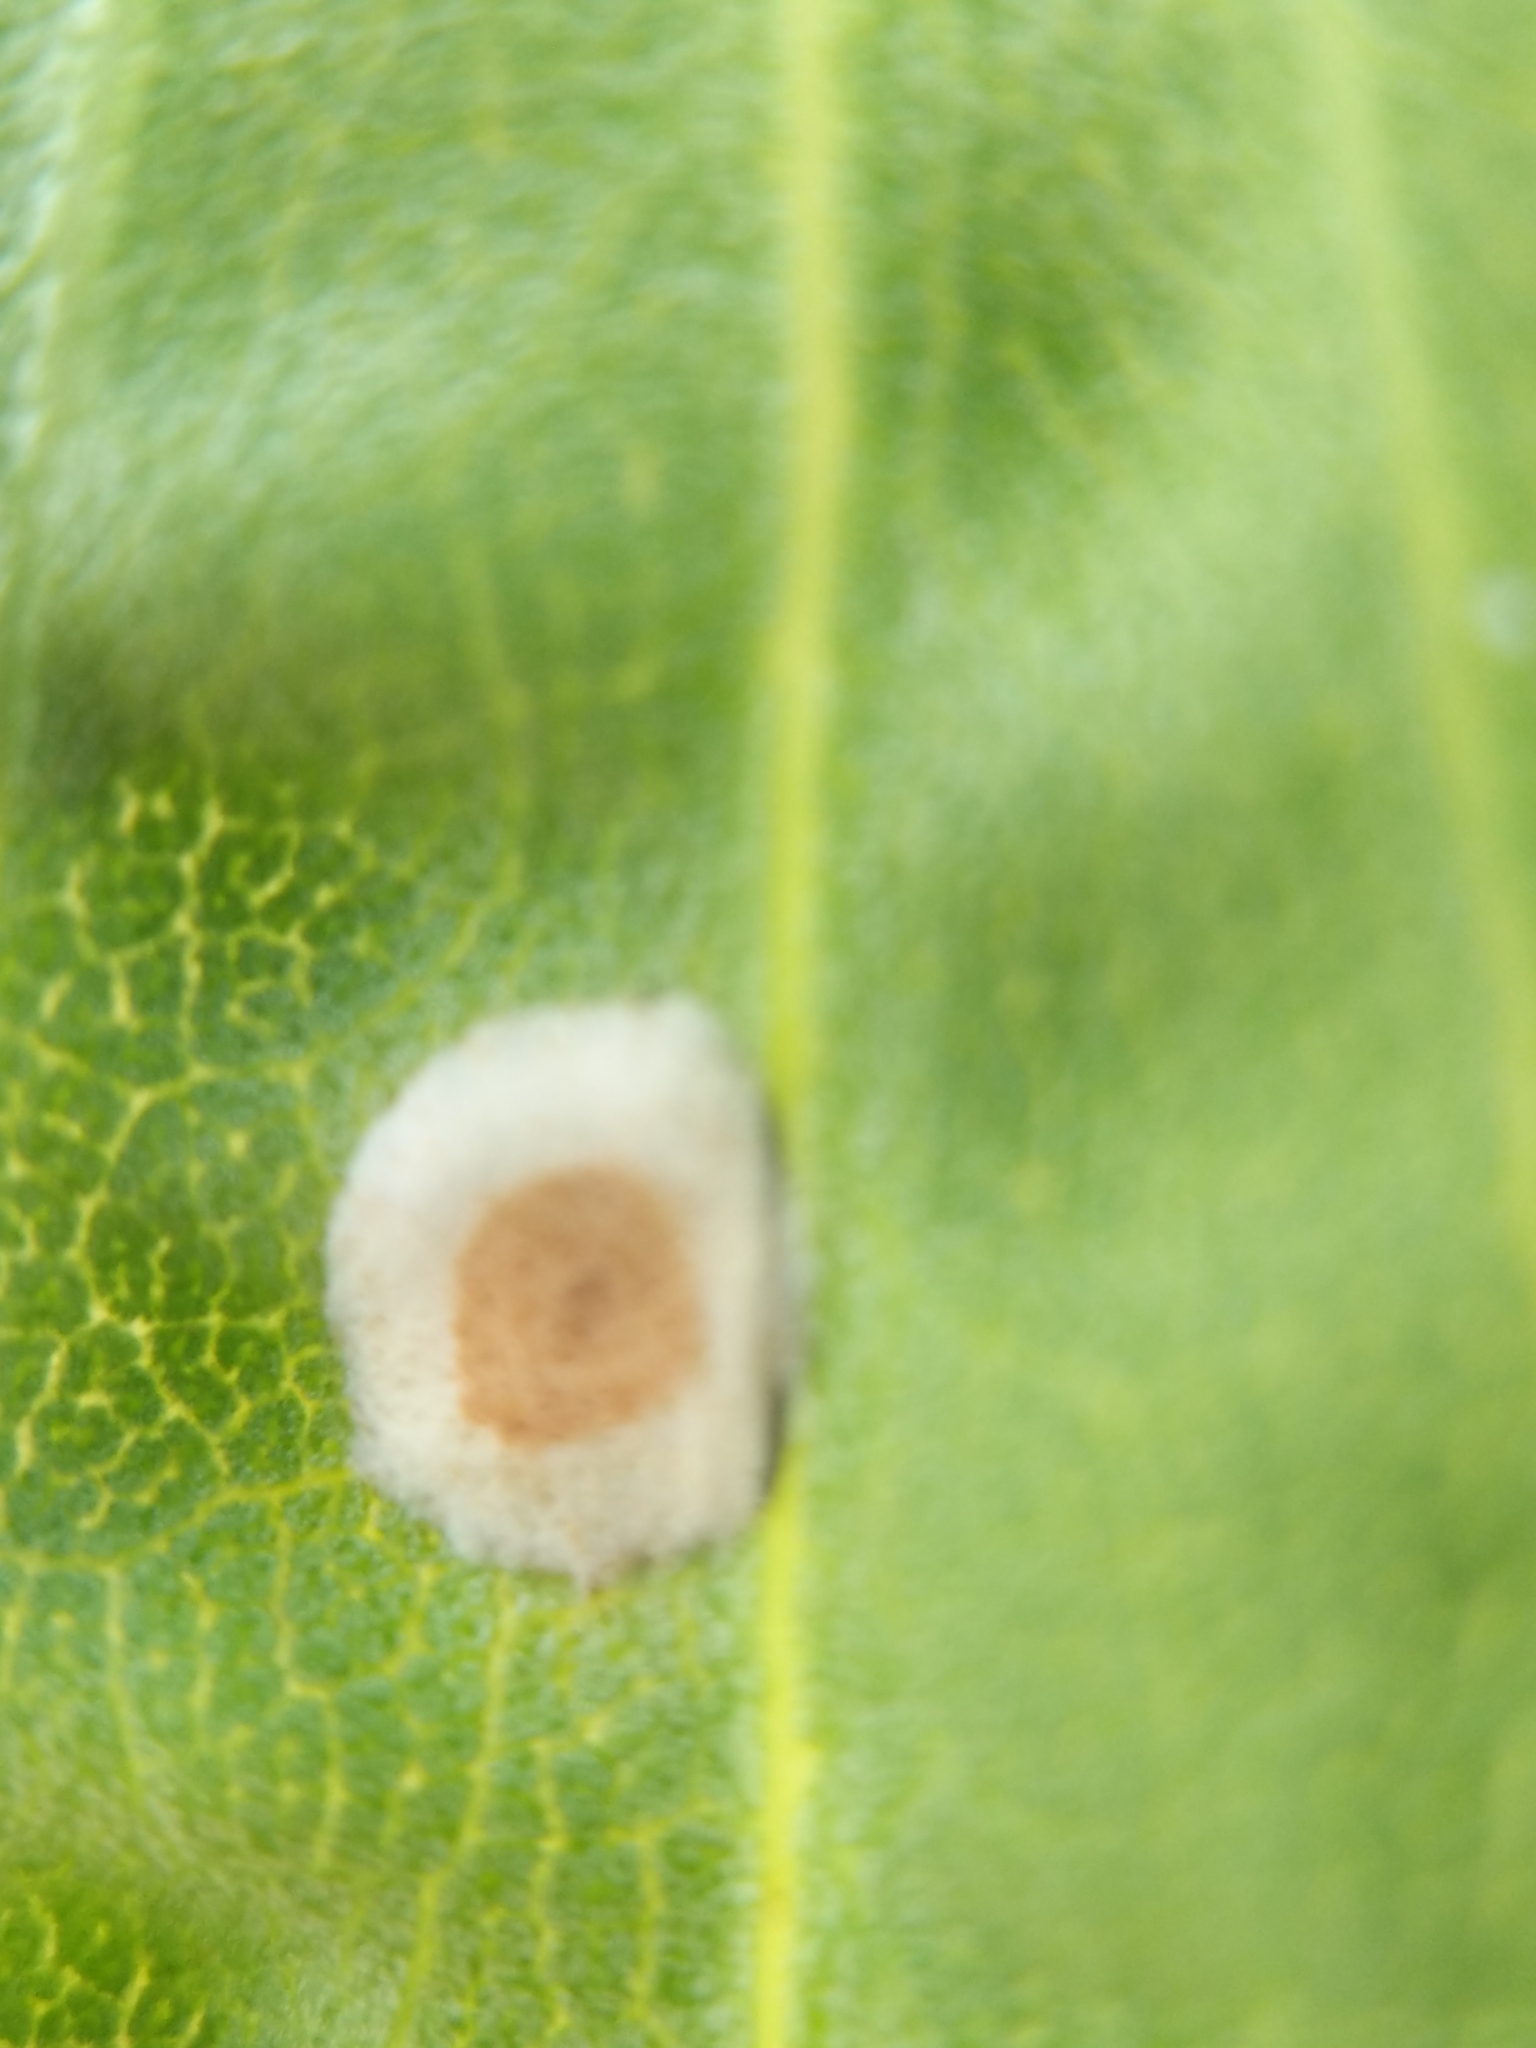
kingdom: Animalia
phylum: Arthropoda
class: Insecta
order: Diptera
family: Cecidomyiidae
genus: Asteromyia
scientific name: Asteromyia carbonifera
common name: Carbonifera goldenrod gall midge
